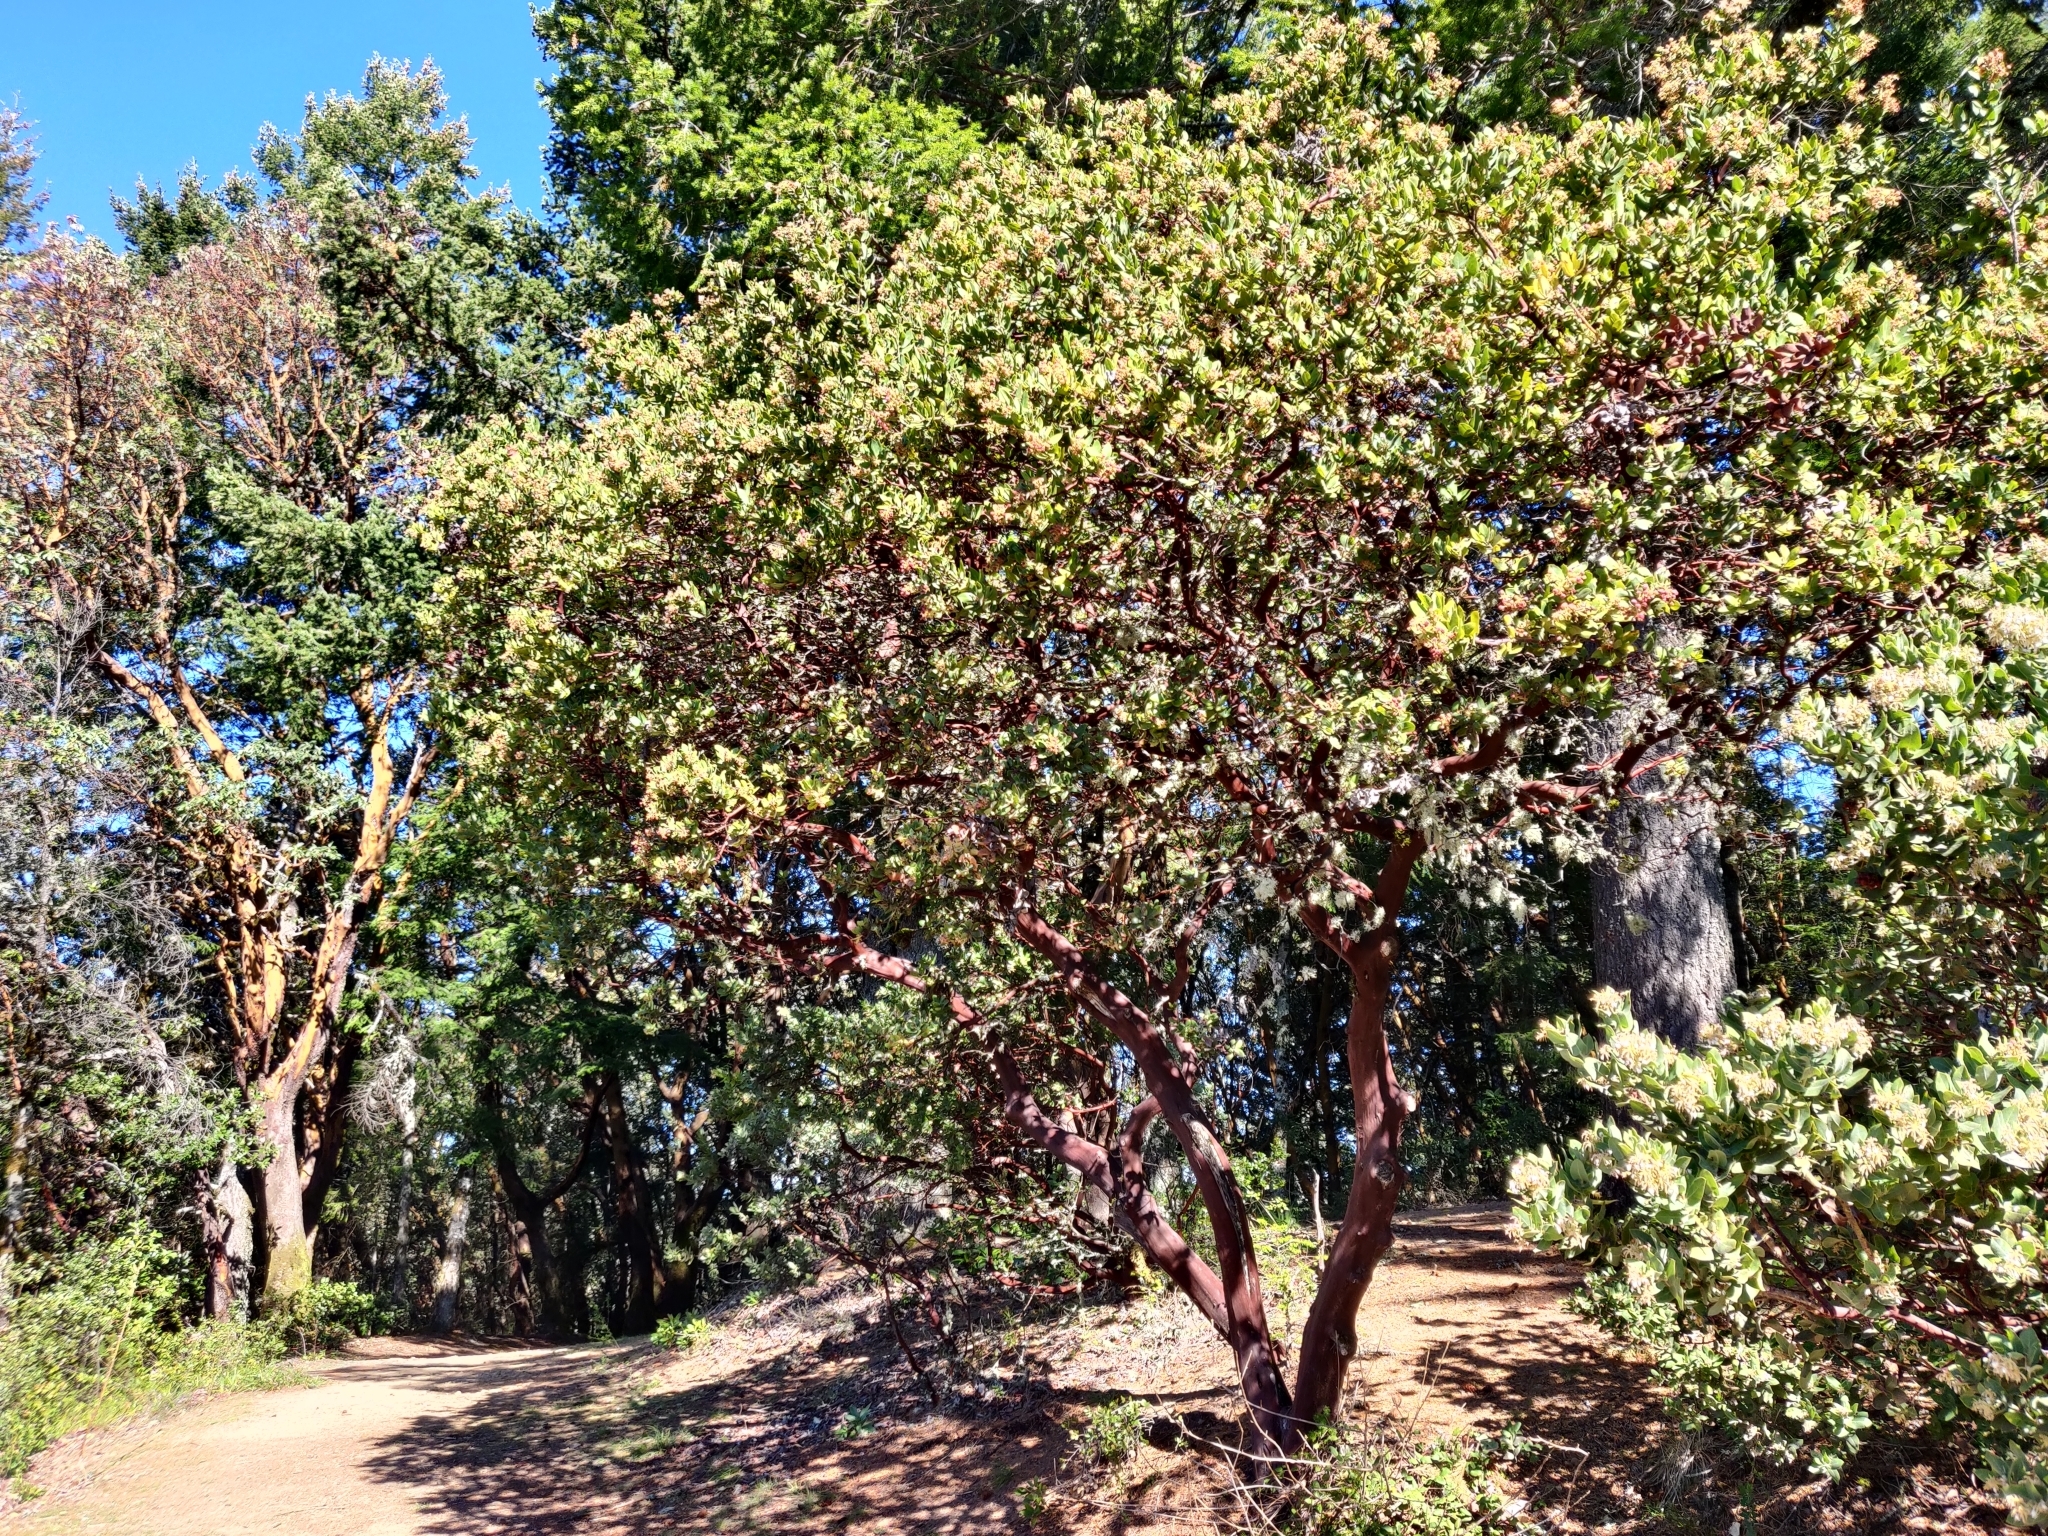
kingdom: Plantae
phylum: Tracheophyta
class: Magnoliopsida
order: Ericales
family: Ericaceae
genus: Arctostaphylos
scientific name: Arctostaphylos regismontana
